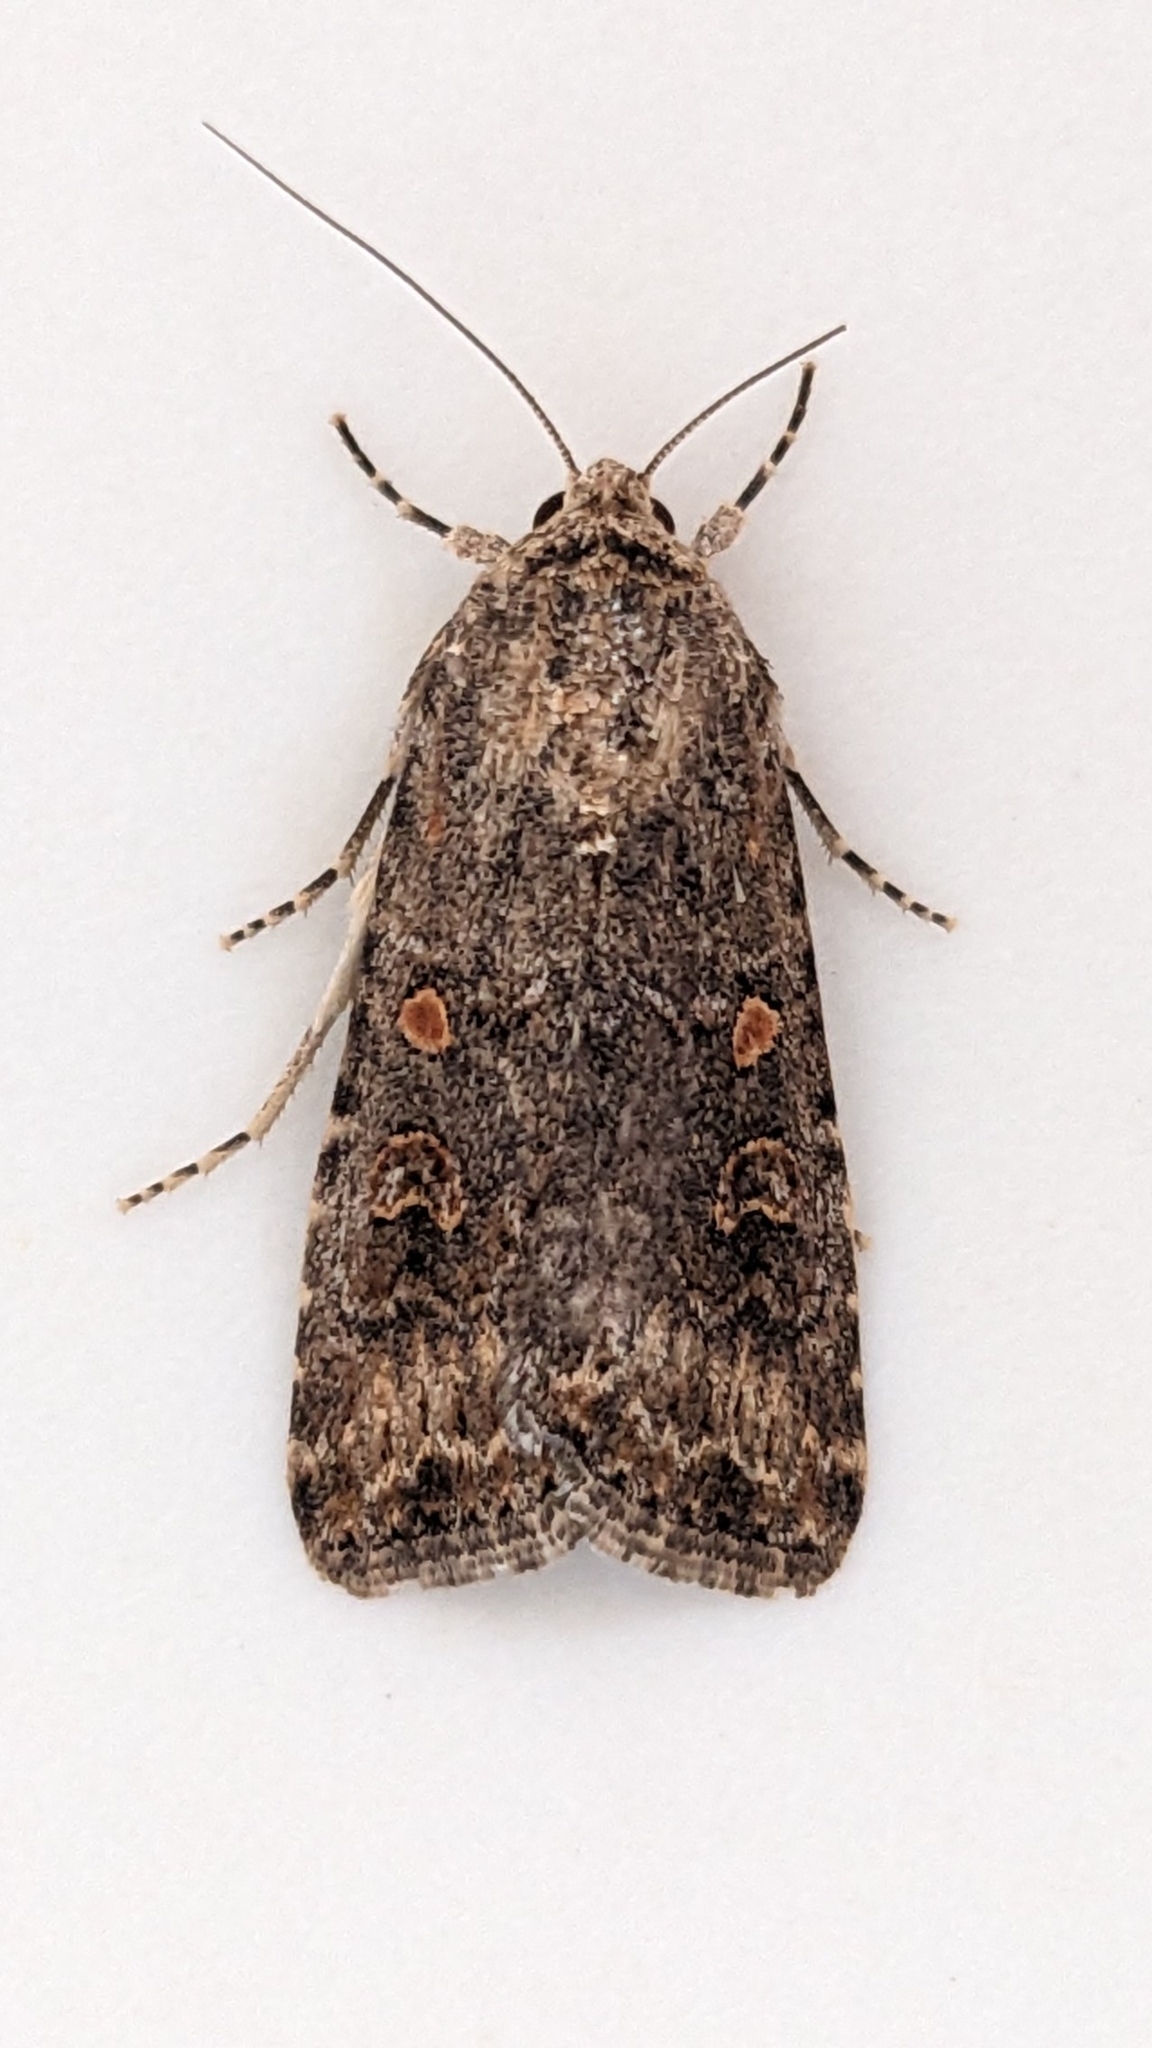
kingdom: Animalia
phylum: Arthropoda
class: Insecta
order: Lepidoptera
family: Noctuidae
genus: Spodoptera
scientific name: Spodoptera exigua
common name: Beet armyworm
